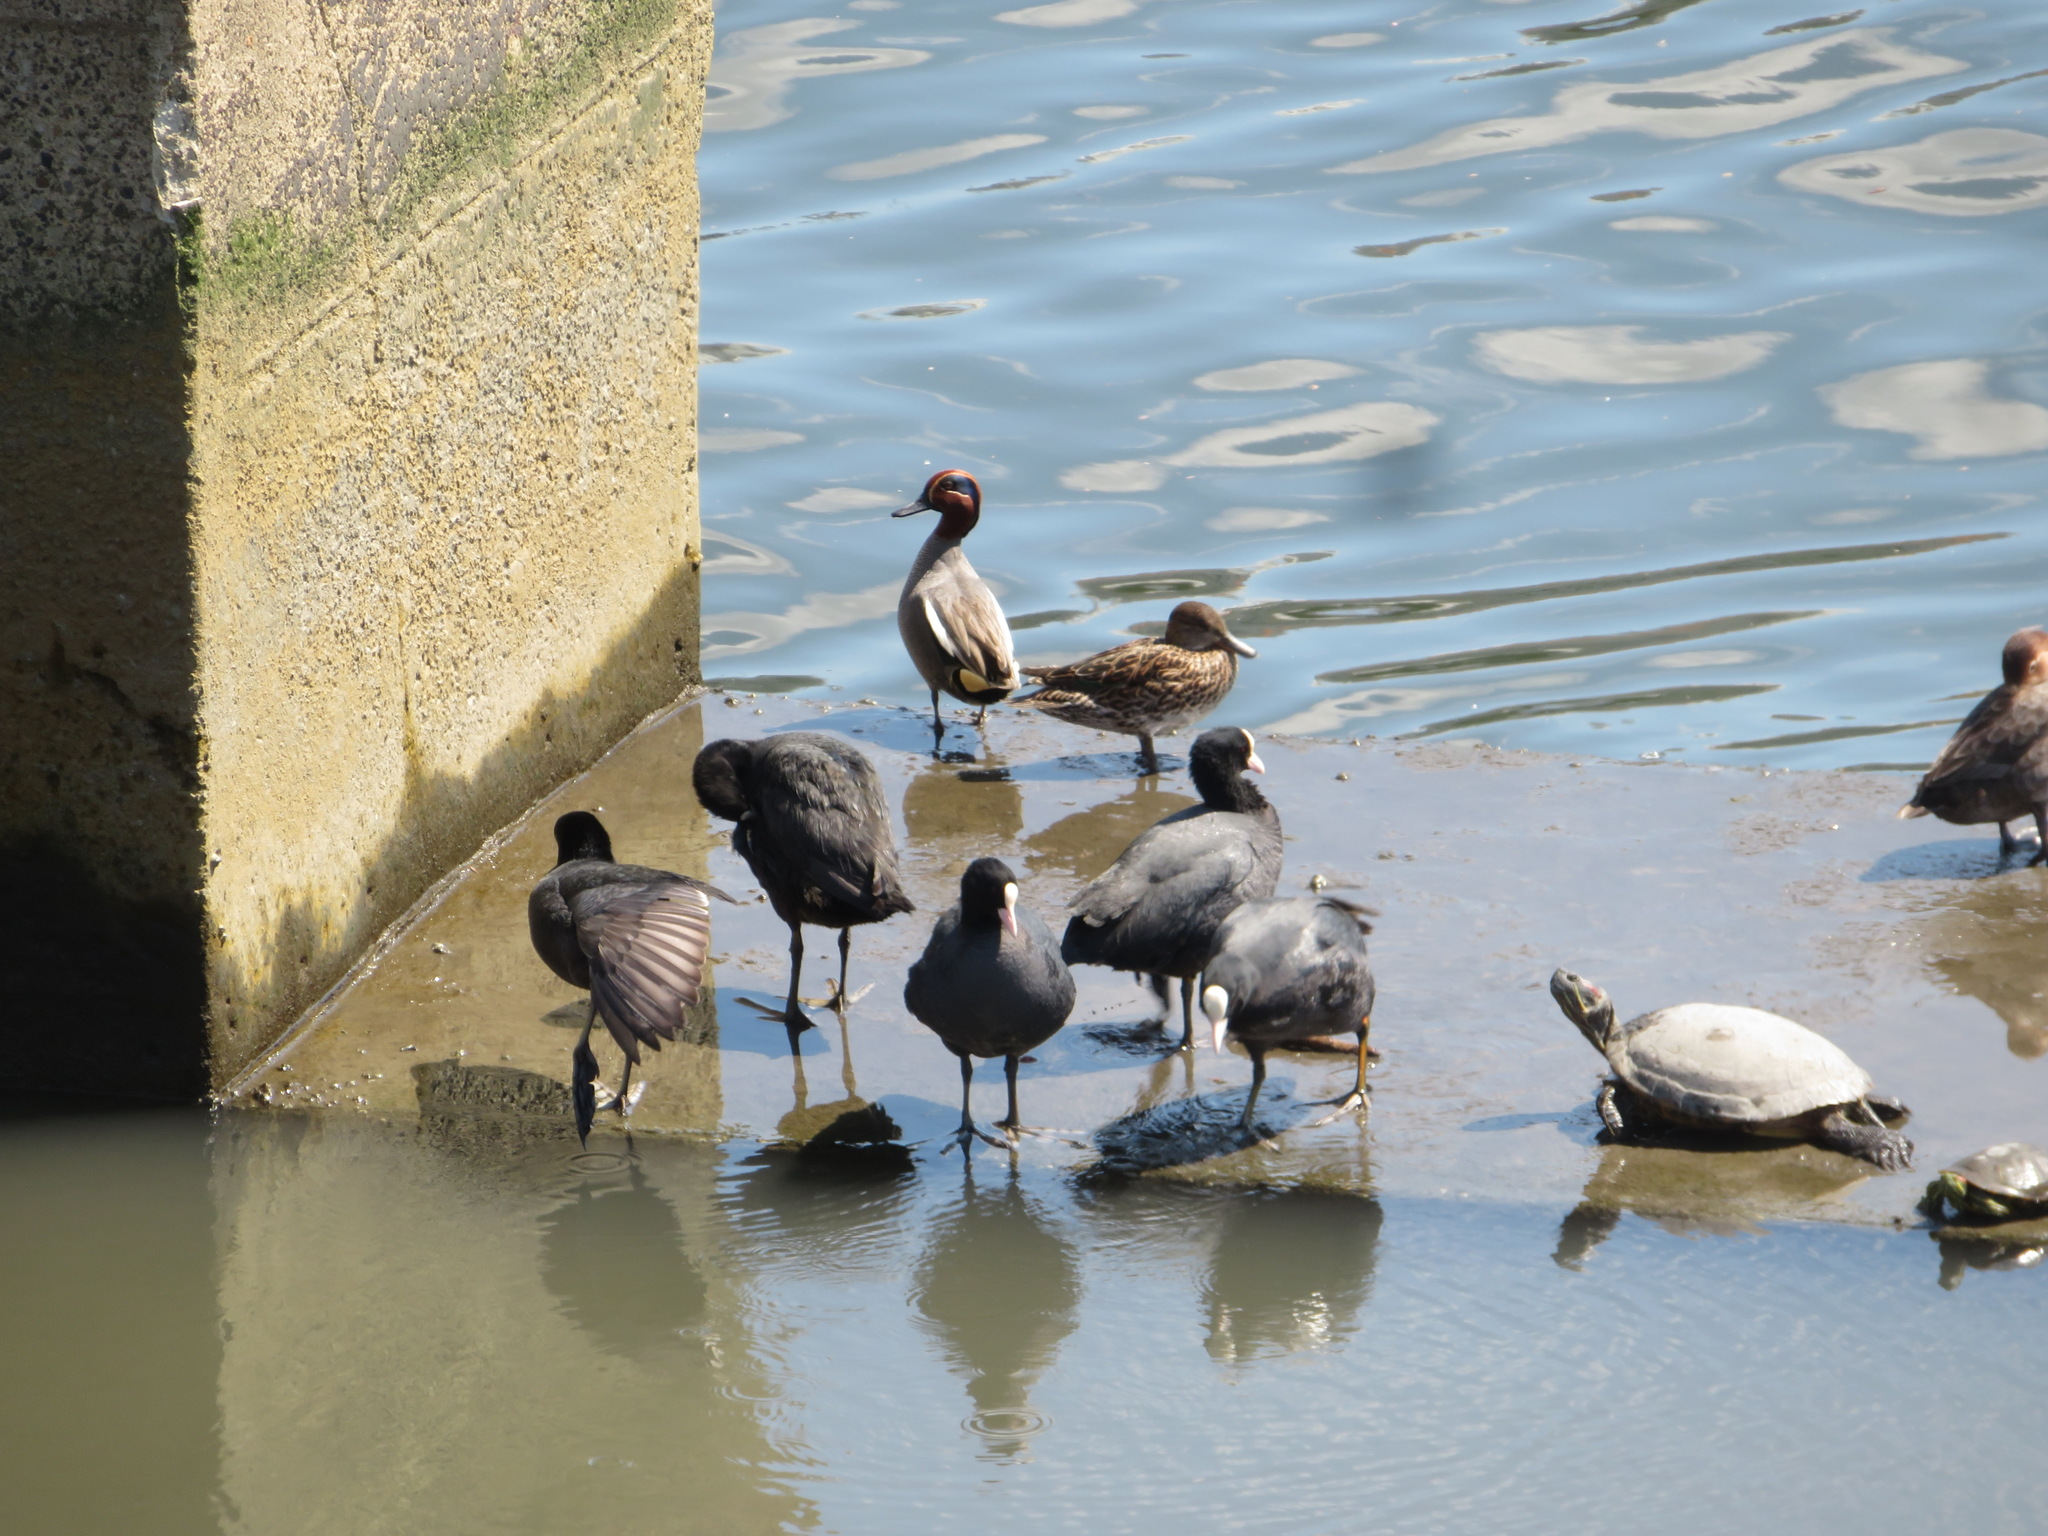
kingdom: Animalia
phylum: Chordata
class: Aves
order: Gruiformes
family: Rallidae
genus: Fulica
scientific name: Fulica atra
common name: Eurasian coot
